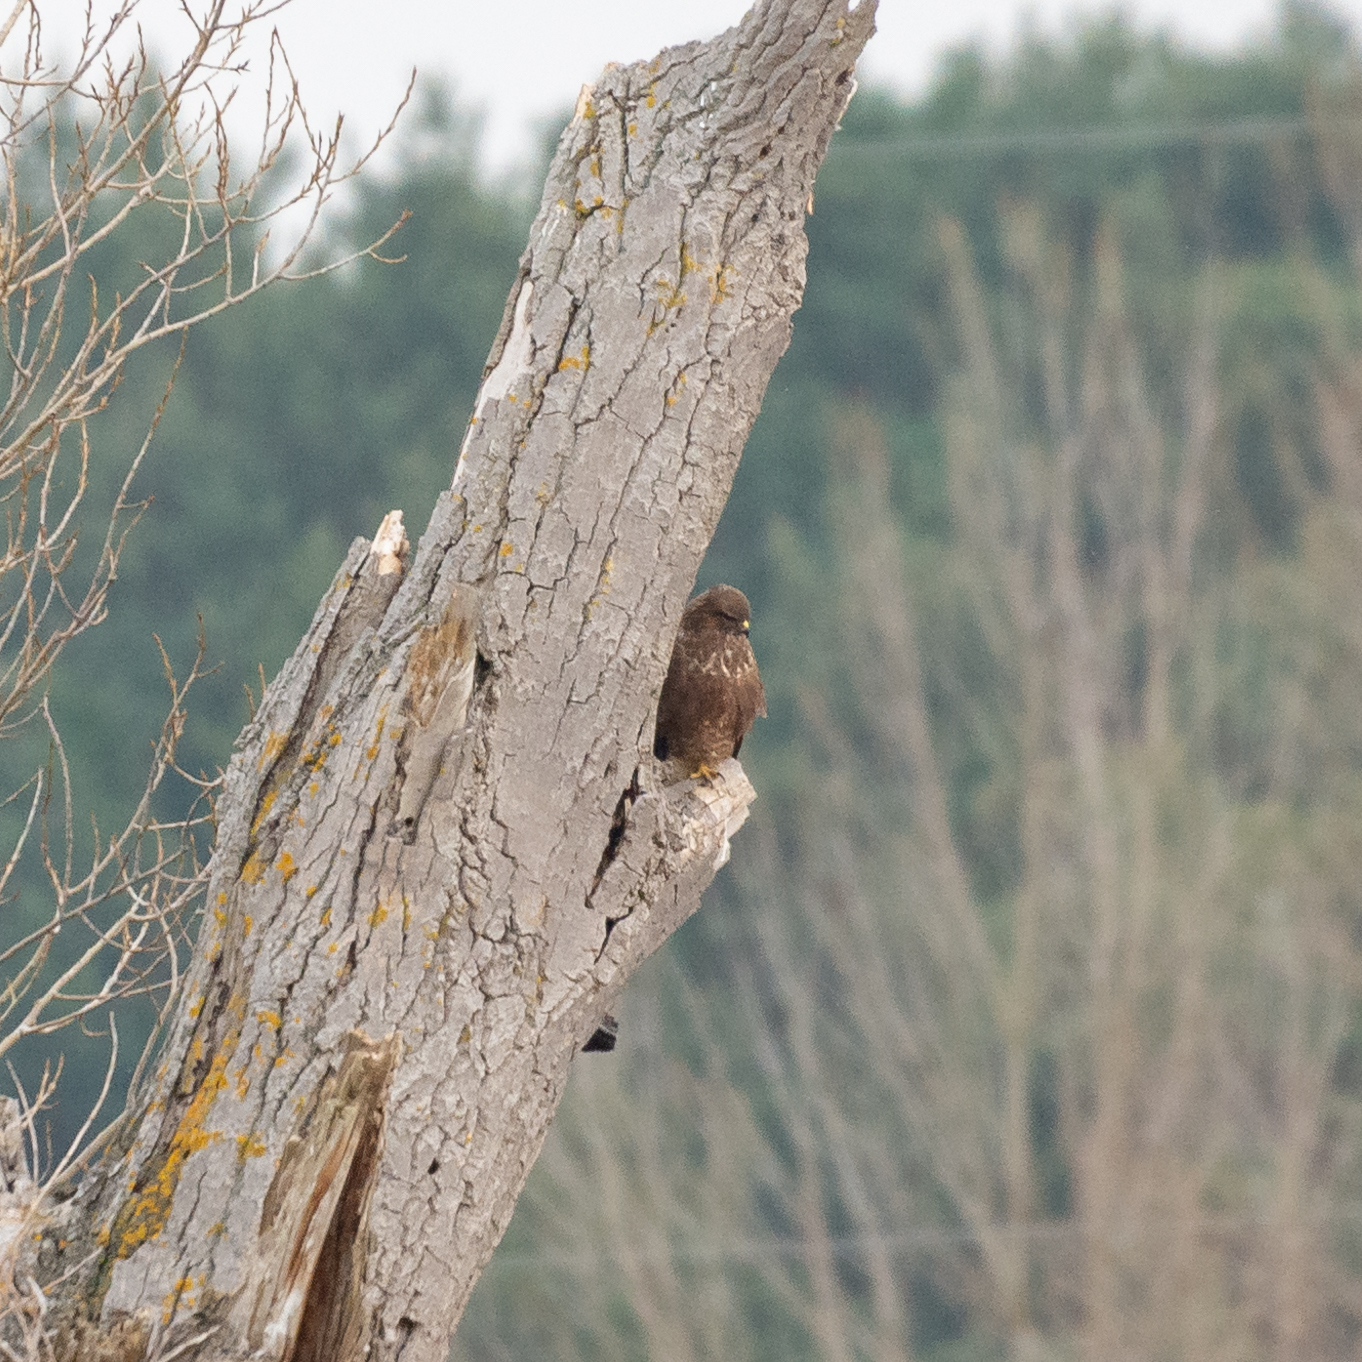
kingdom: Animalia
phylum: Chordata
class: Aves
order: Accipitriformes
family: Accipitridae
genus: Buteo
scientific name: Buteo buteo
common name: Common buzzard
